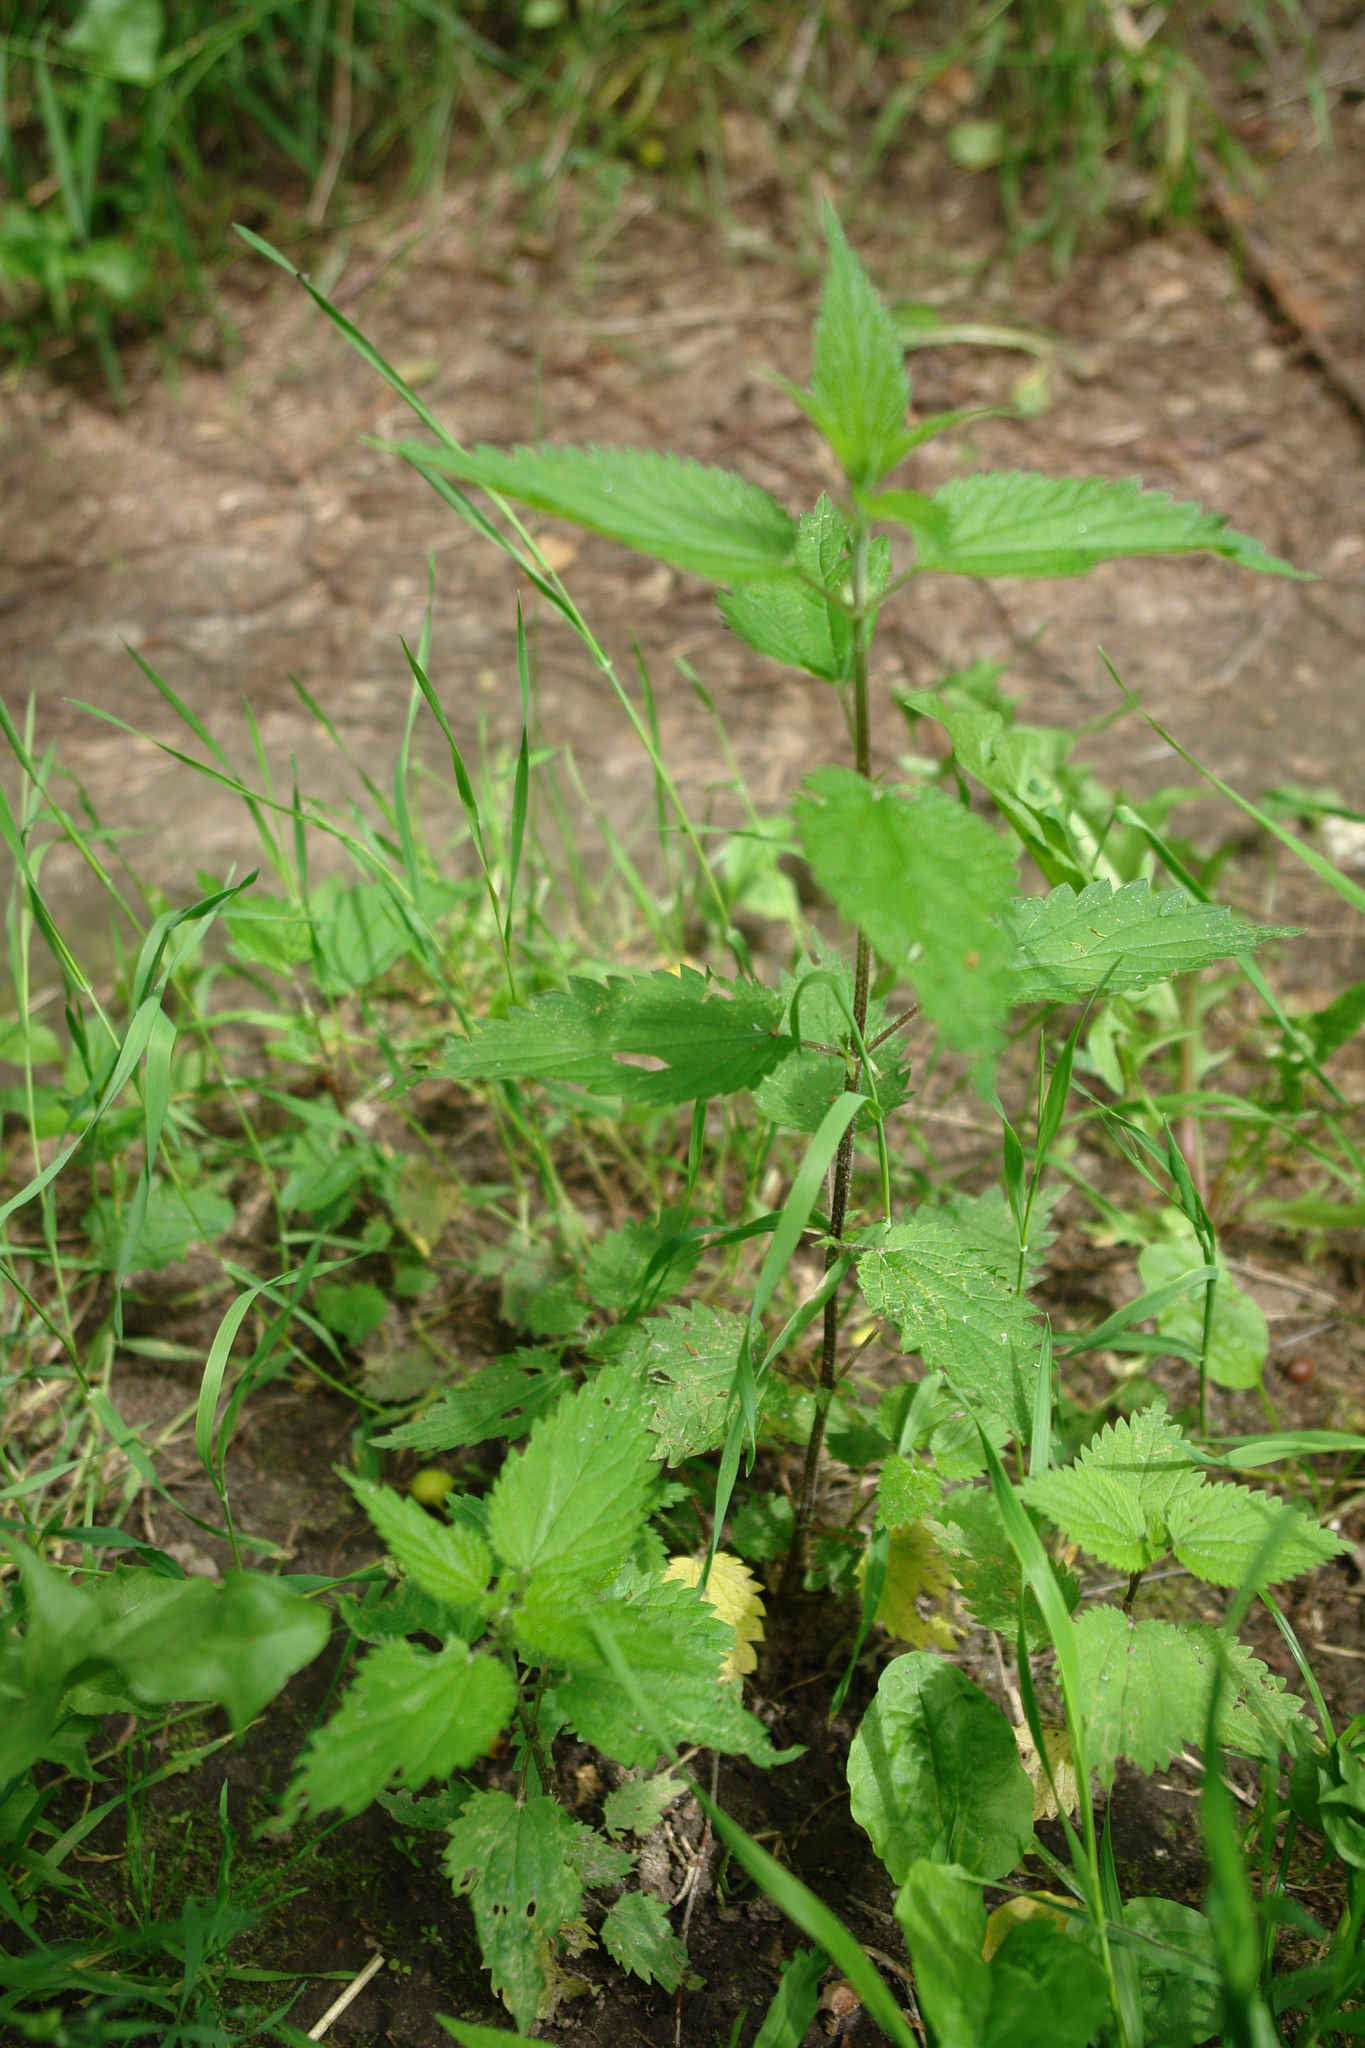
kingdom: Plantae
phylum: Tracheophyta
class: Magnoliopsida
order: Rosales
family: Urticaceae
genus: Urtica
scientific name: Urtica dioica
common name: Common nettle
